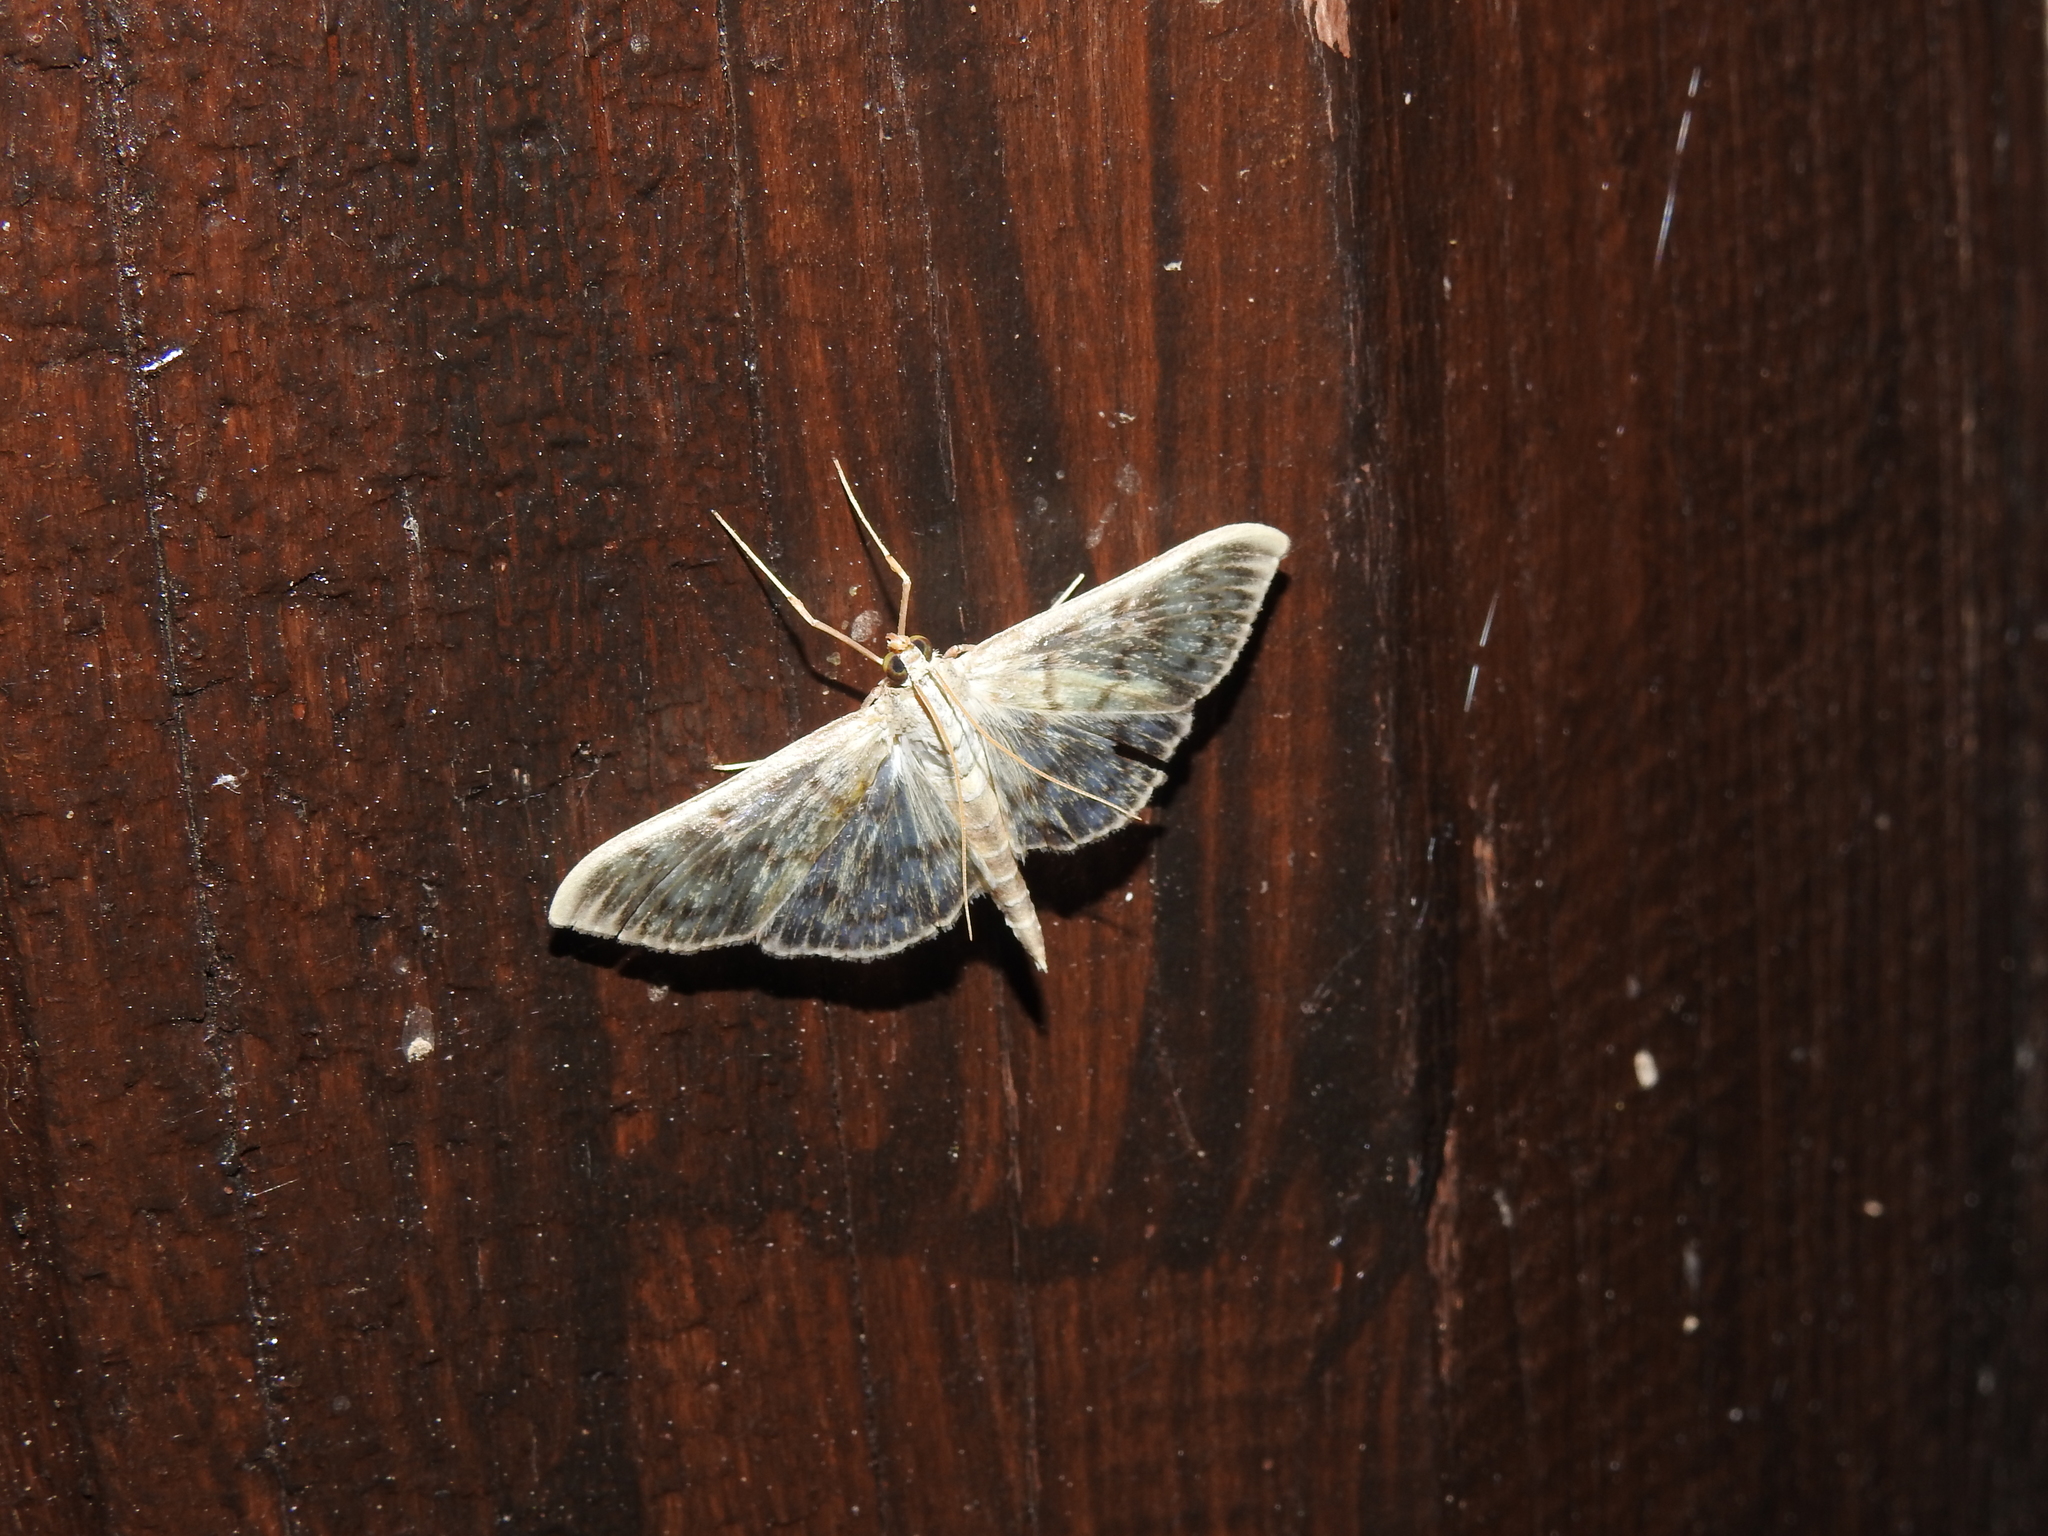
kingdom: Animalia
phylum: Arthropoda
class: Insecta
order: Lepidoptera
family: Crambidae
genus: Patania
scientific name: Patania ruralis
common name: Mother of pearl
